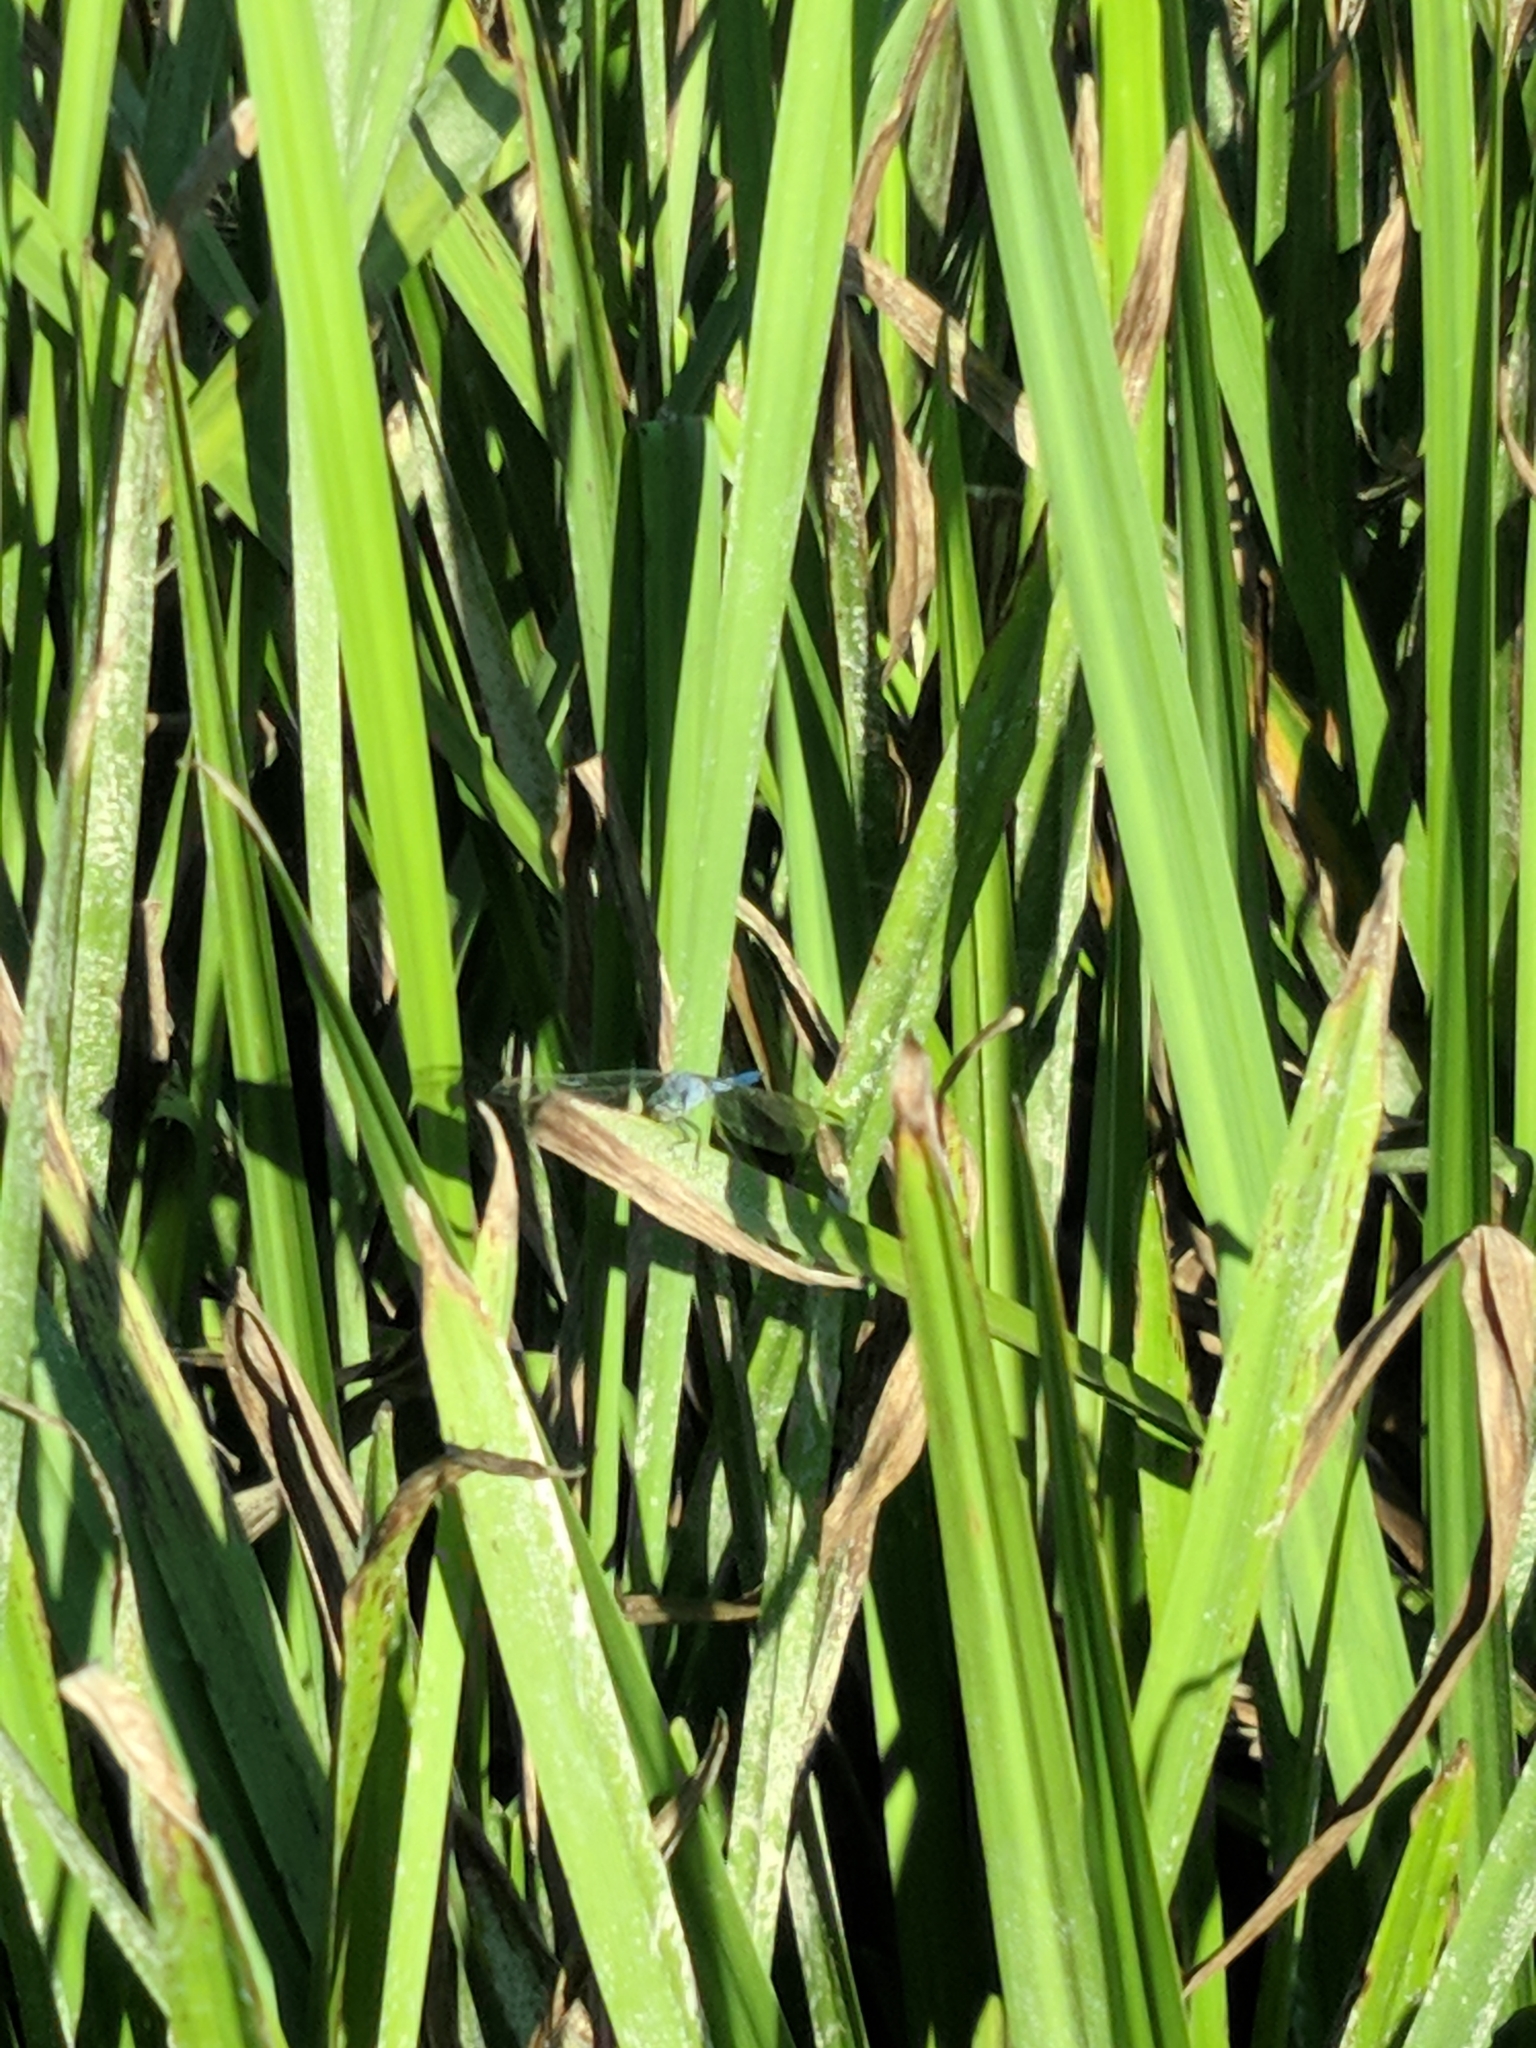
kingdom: Animalia
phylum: Arthropoda
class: Insecta
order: Odonata
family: Libellulidae
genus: Orthetrum
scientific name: Orthetrum coerulescens
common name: Keeled skimmer
